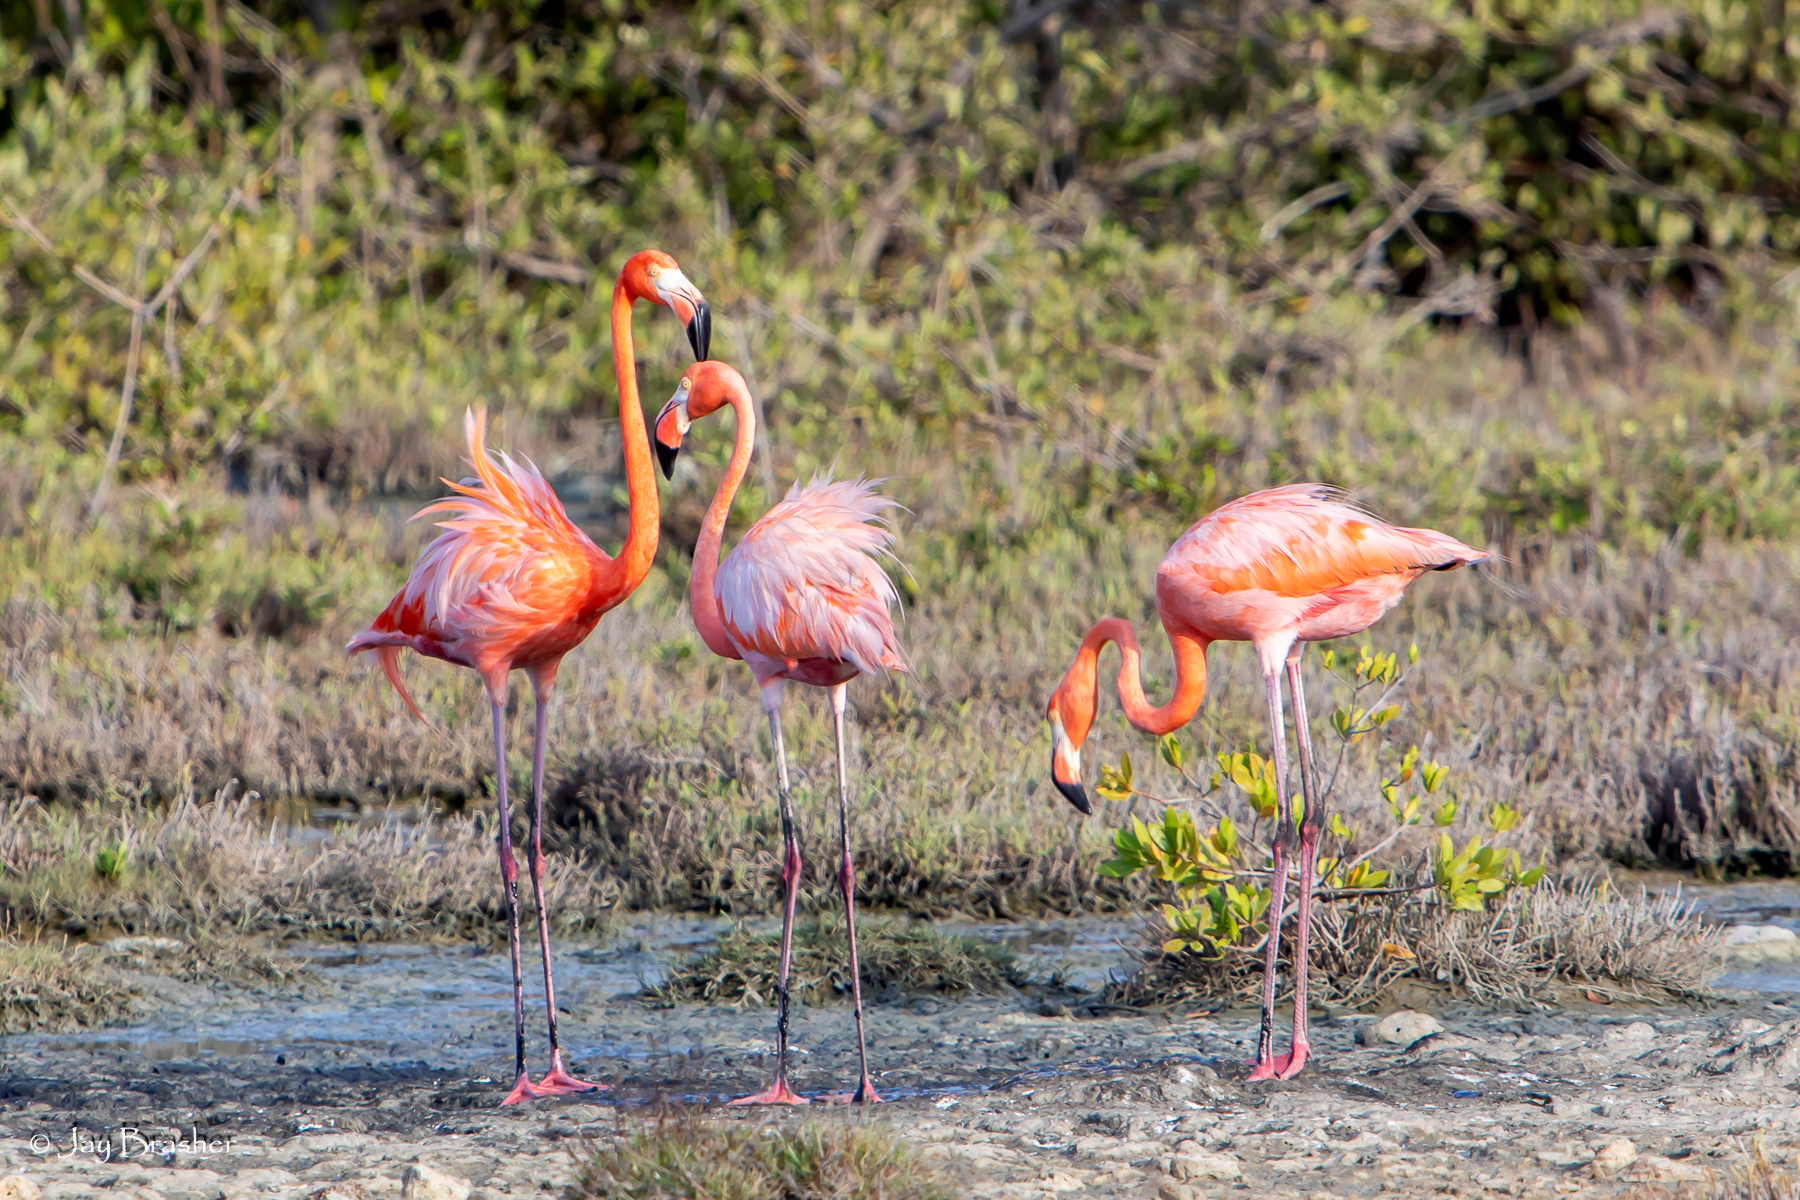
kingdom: Animalia
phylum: Chordata
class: Aves
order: Phoenicopteriformes
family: Phoenicopteridae
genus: Phoenicopterus
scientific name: Phoenicopterus ruber
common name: American flamingo
